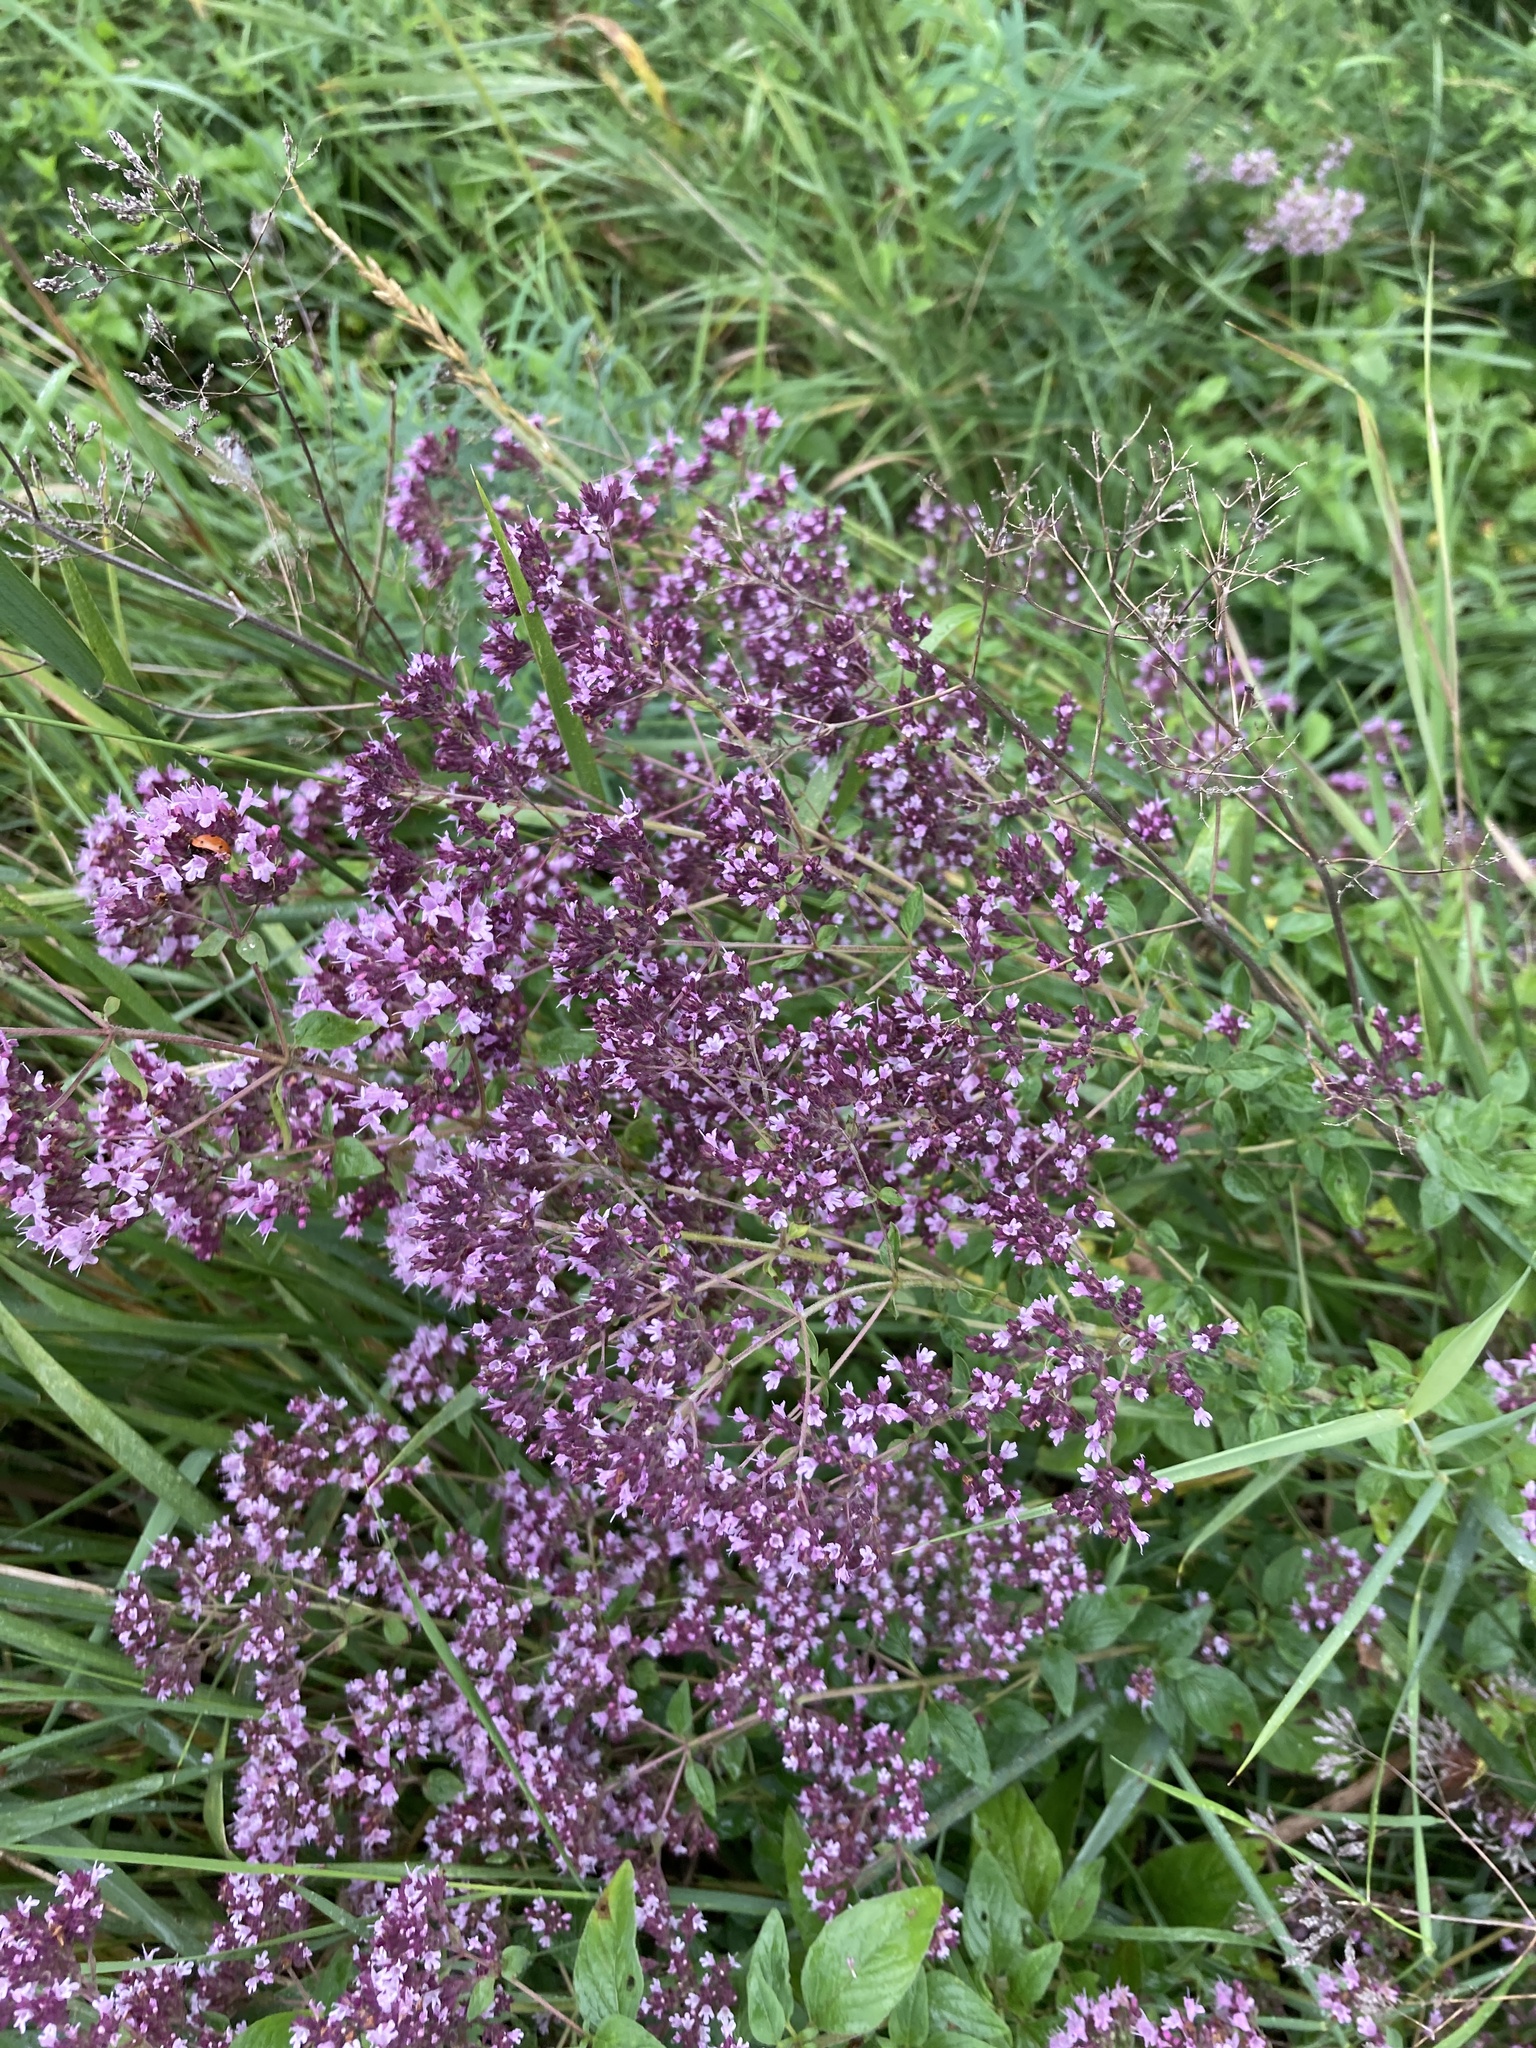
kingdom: Plantae
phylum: Tracheophyta
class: Magnoliopsida
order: Lamiales
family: Lamiaceae
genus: Origanum
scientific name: Origanum vulgare
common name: Wild marjoram
